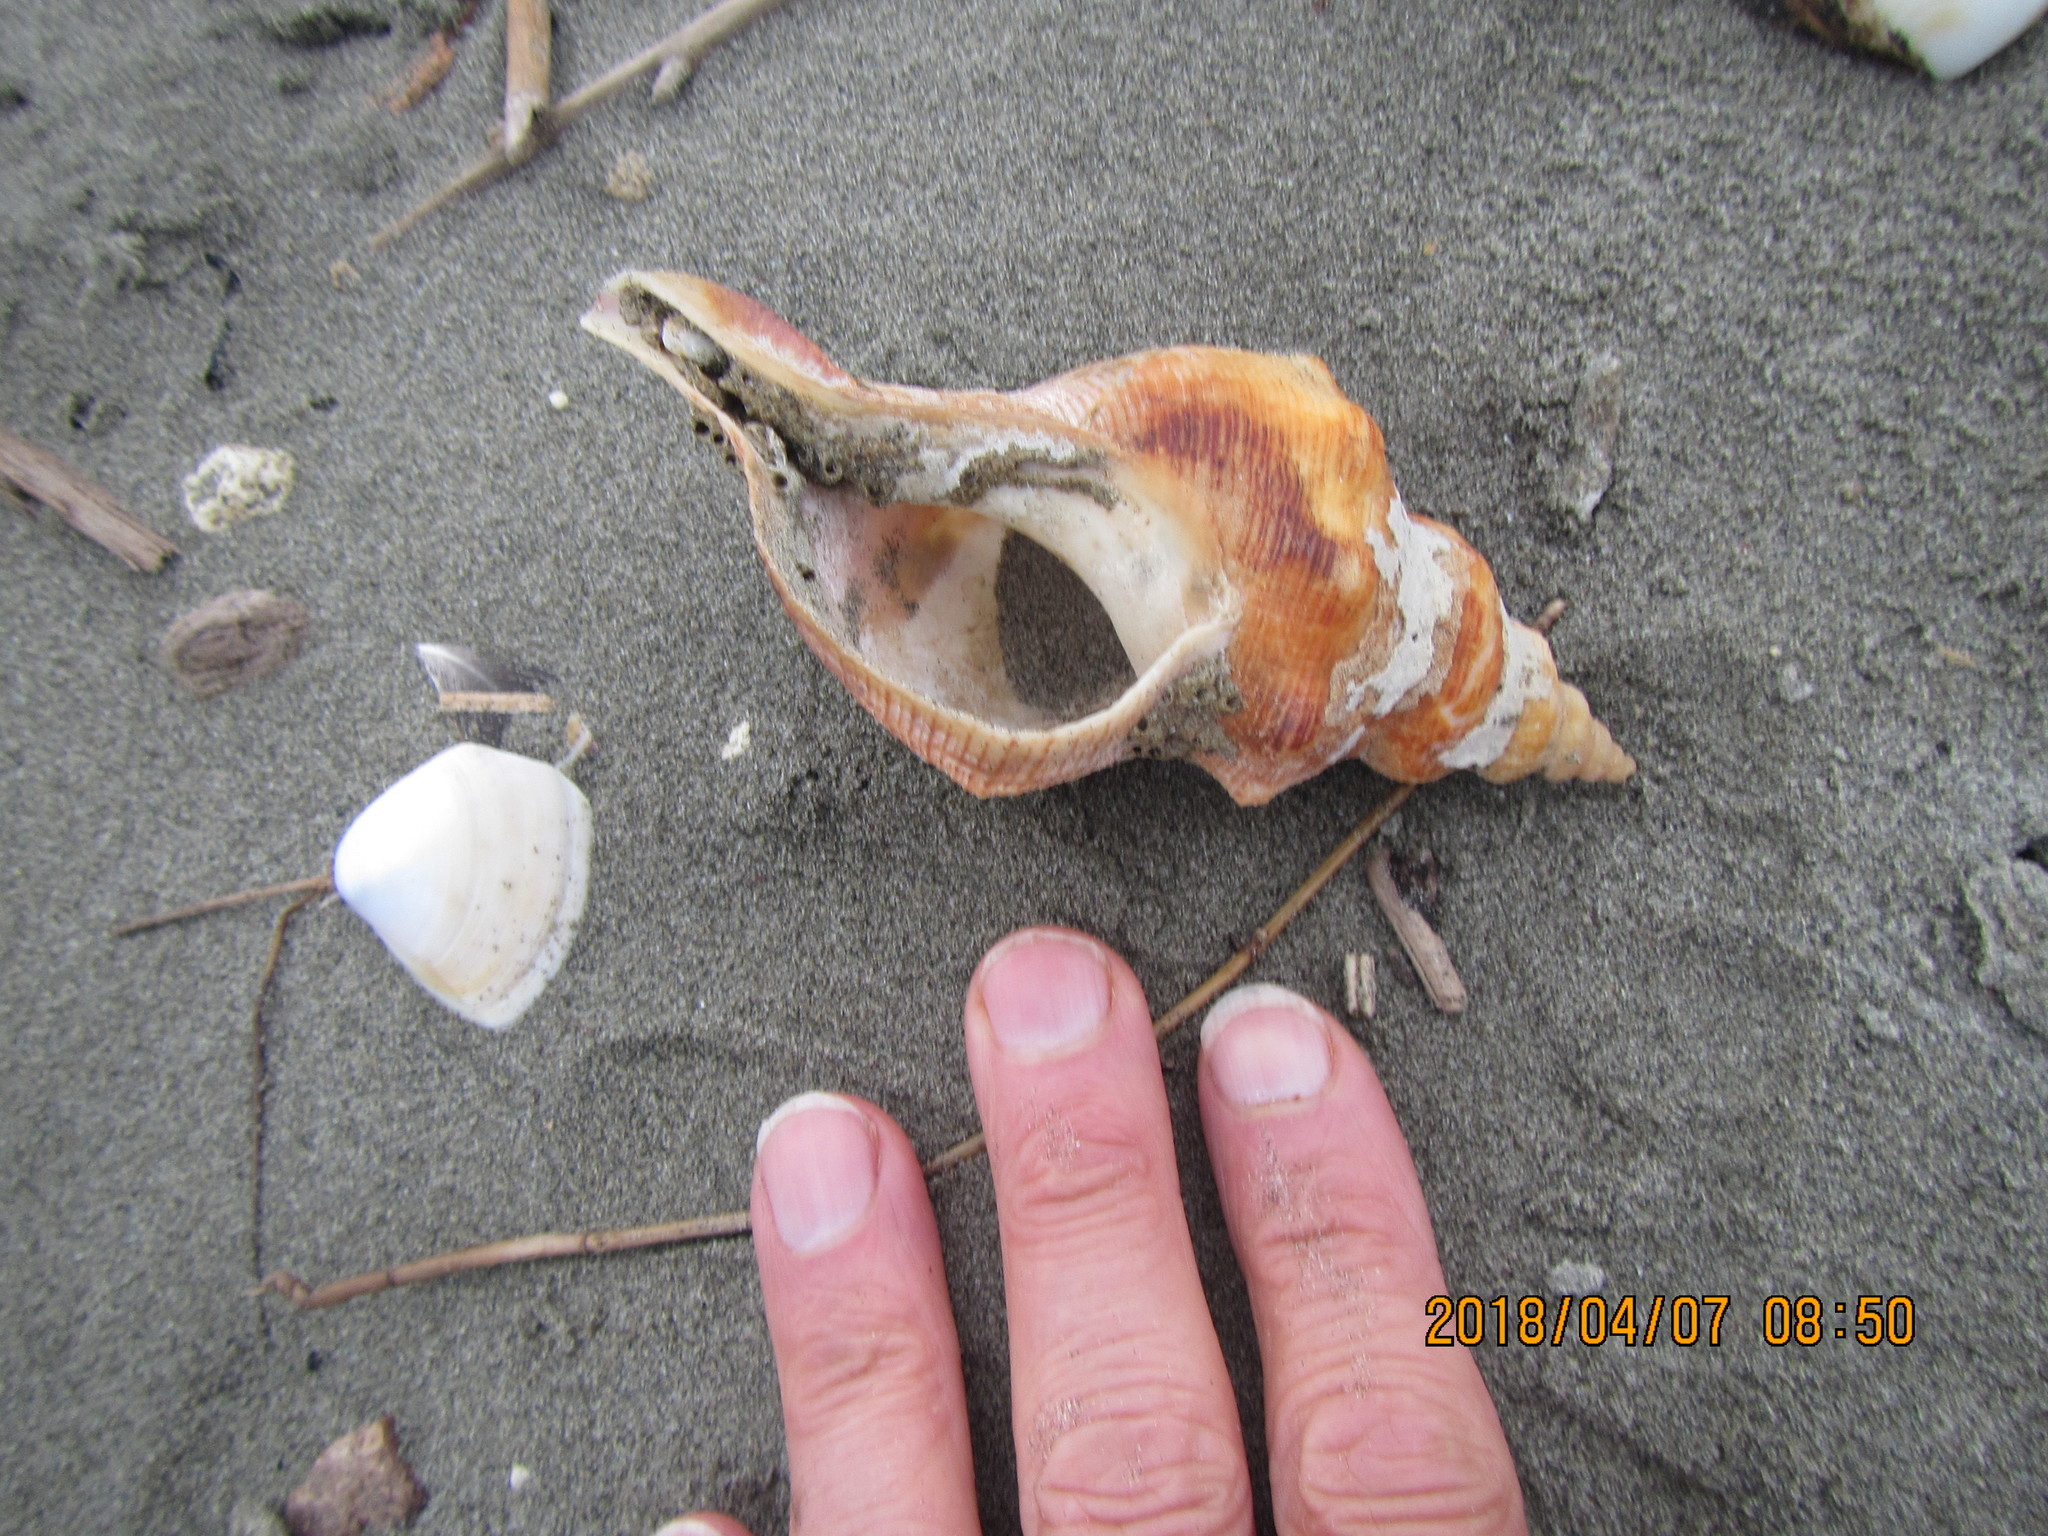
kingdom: Animalia
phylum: Mollusca
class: Gastropoda
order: Neogastropoda
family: Austrosiphonidae
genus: Penion
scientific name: Penion ormesi
